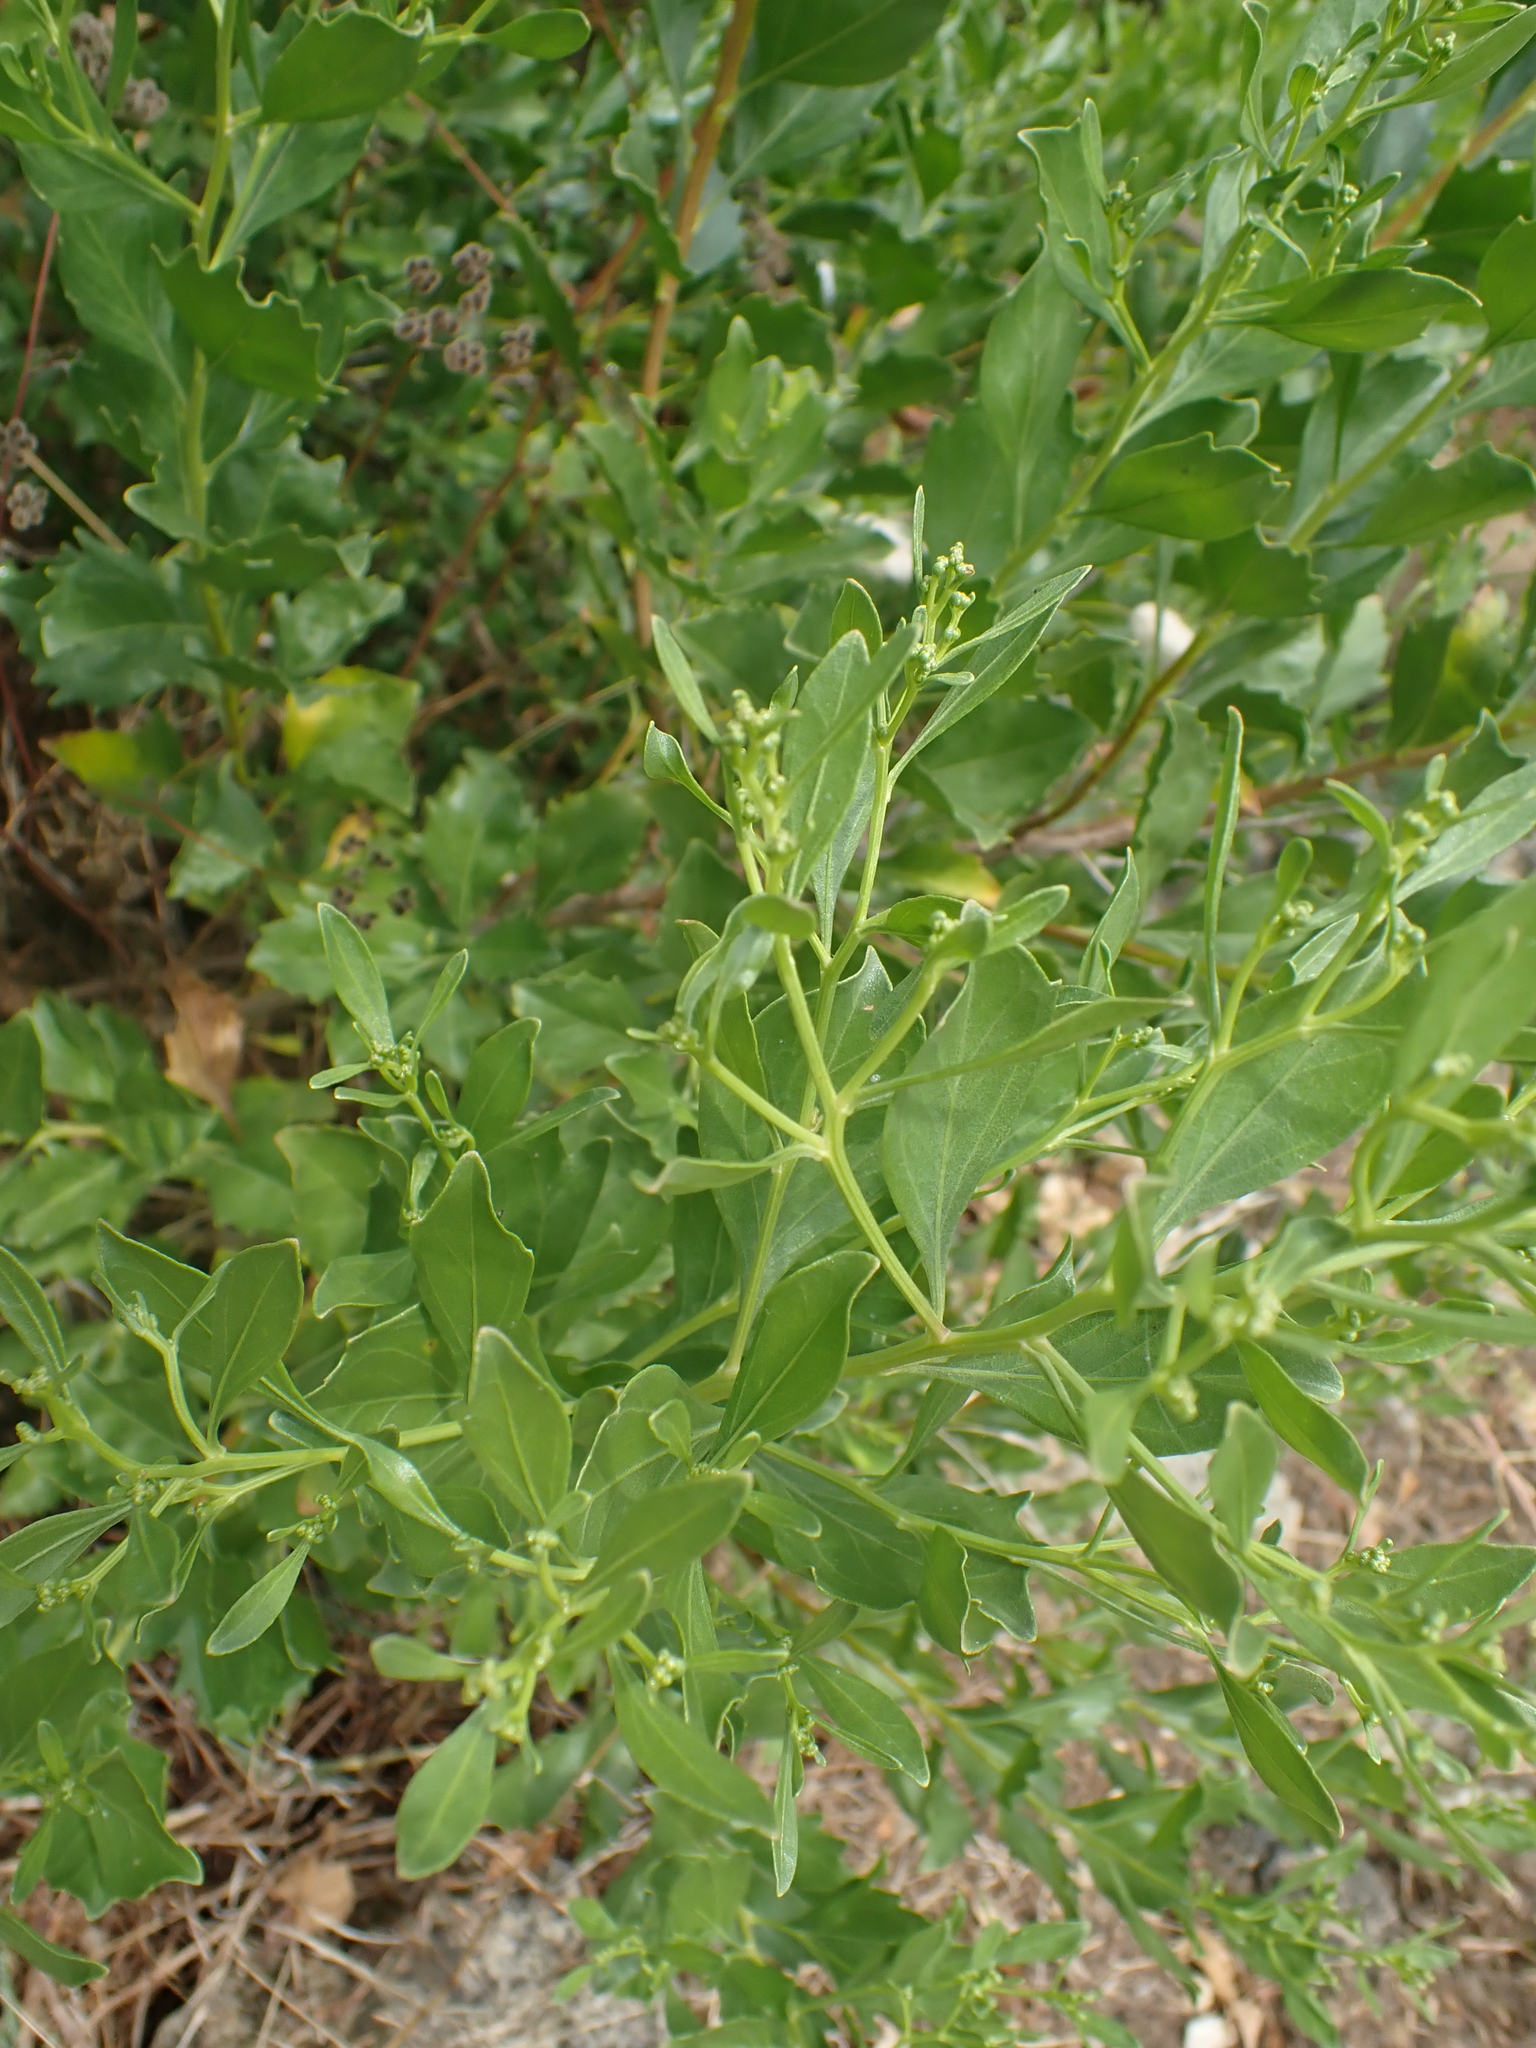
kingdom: Plantae
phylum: Tracheophyta
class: Magnoliopsida
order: Asterales
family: Asteraceae
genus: Baccharis
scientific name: Baccharis halimifolia
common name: Eastern baccharis
